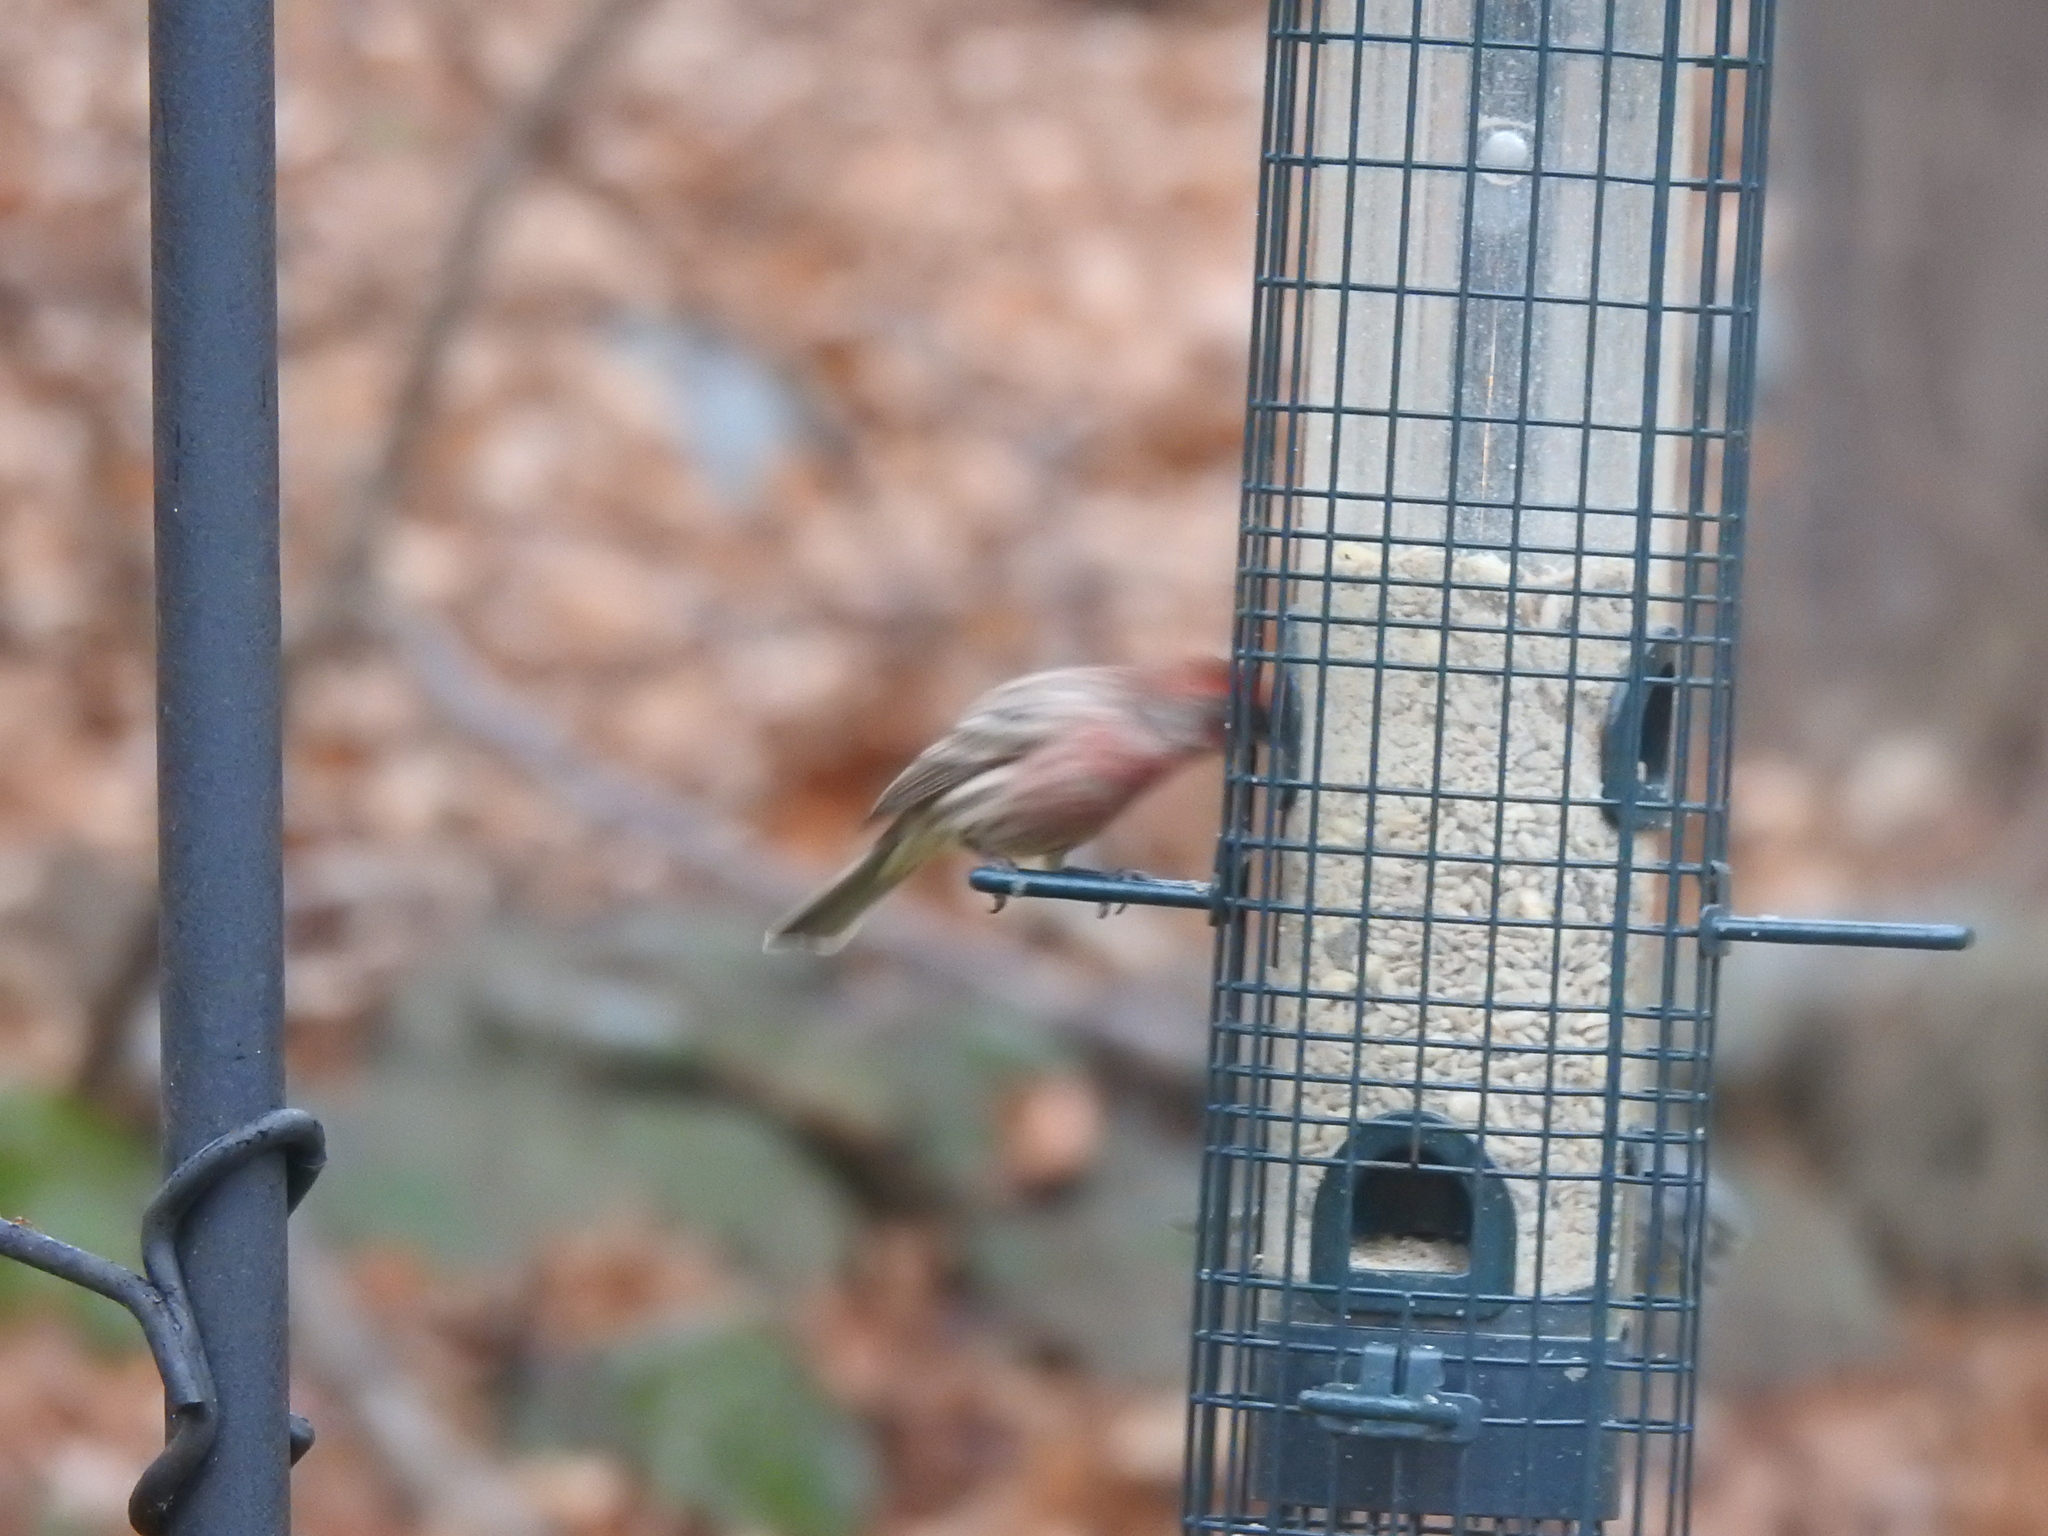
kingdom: Animalia
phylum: Chordata
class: Aves
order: Passeriformes
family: Fringillidae
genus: Haemorhous
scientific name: Haemorhous mexicanus
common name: House finch
